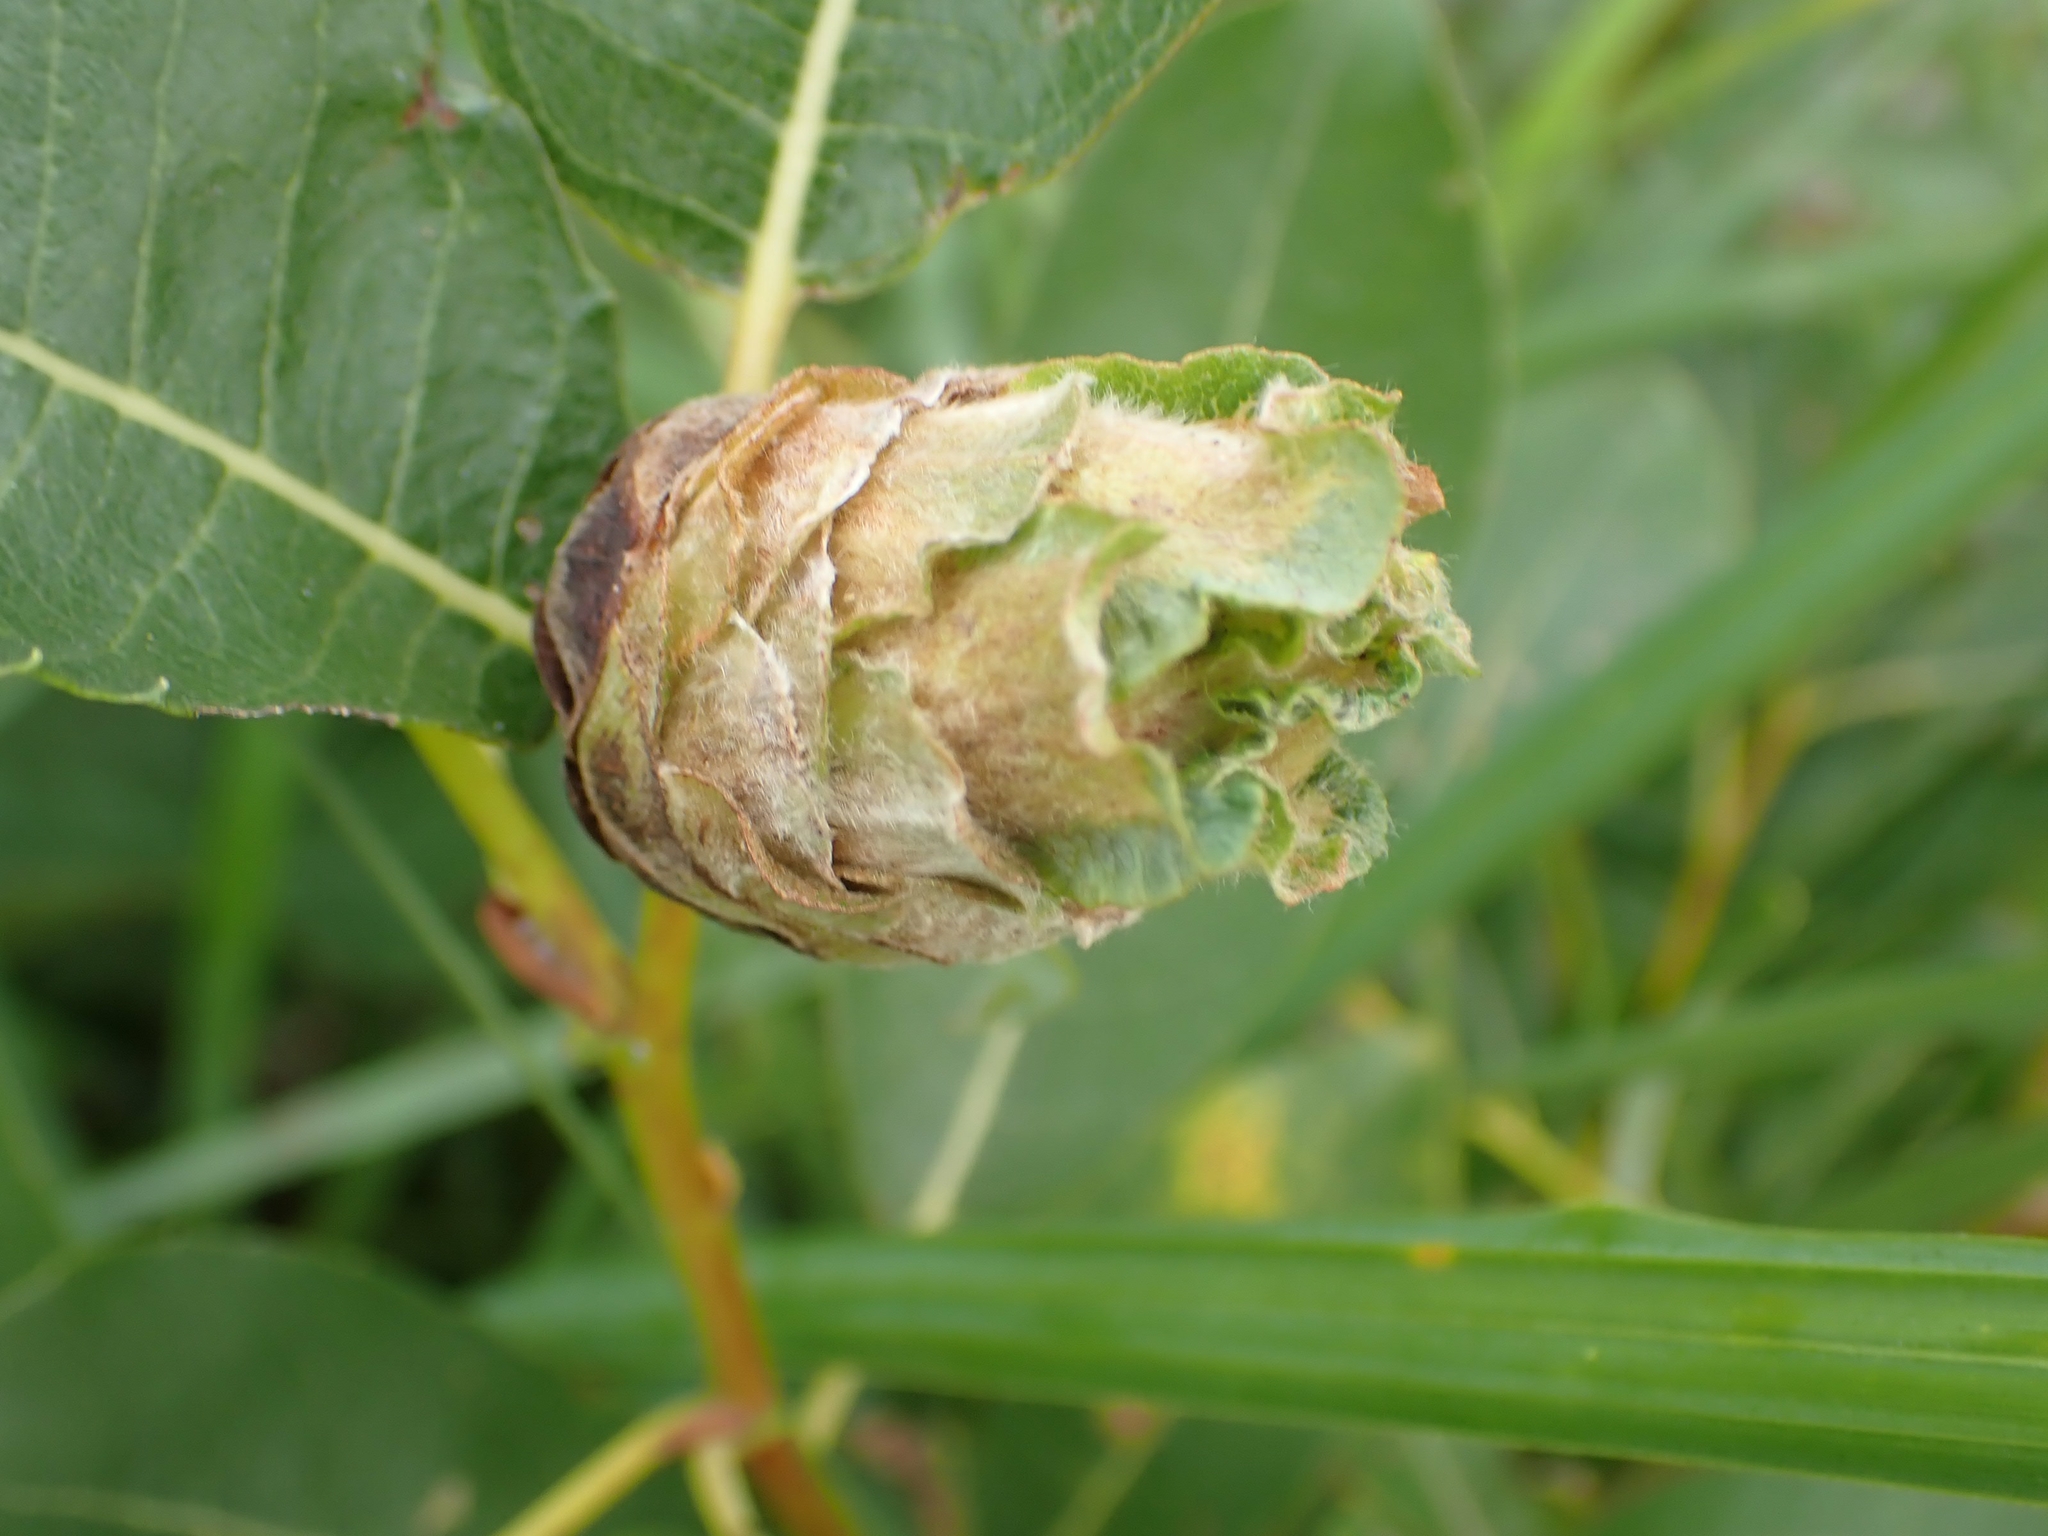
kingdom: Animalia
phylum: Arthropoda
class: Insecta
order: Diptera
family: Cecidomyiidae
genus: Rabdophaga
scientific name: Rabdophaga strobiloides
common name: Willow pinecone gall midge
